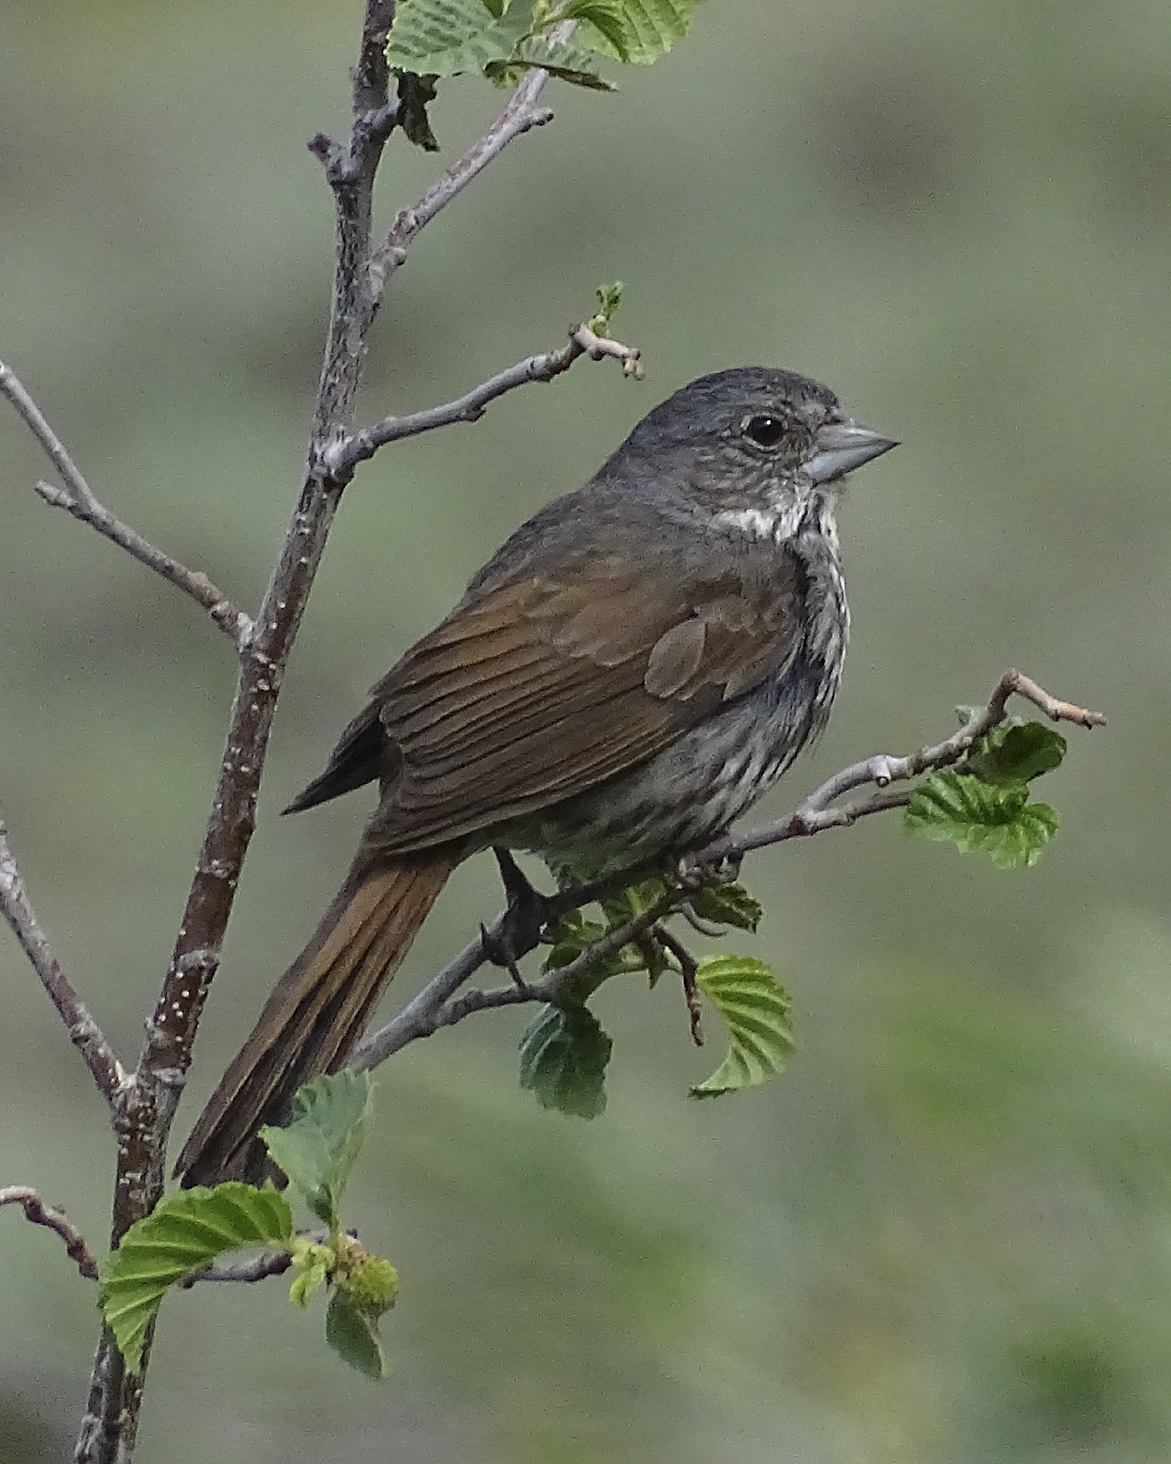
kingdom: Animalia
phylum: Chordata
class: Aves
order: Passeriformes
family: Passerellidae
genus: Passerella
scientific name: Passerella iliaca
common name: Fox sparrow
